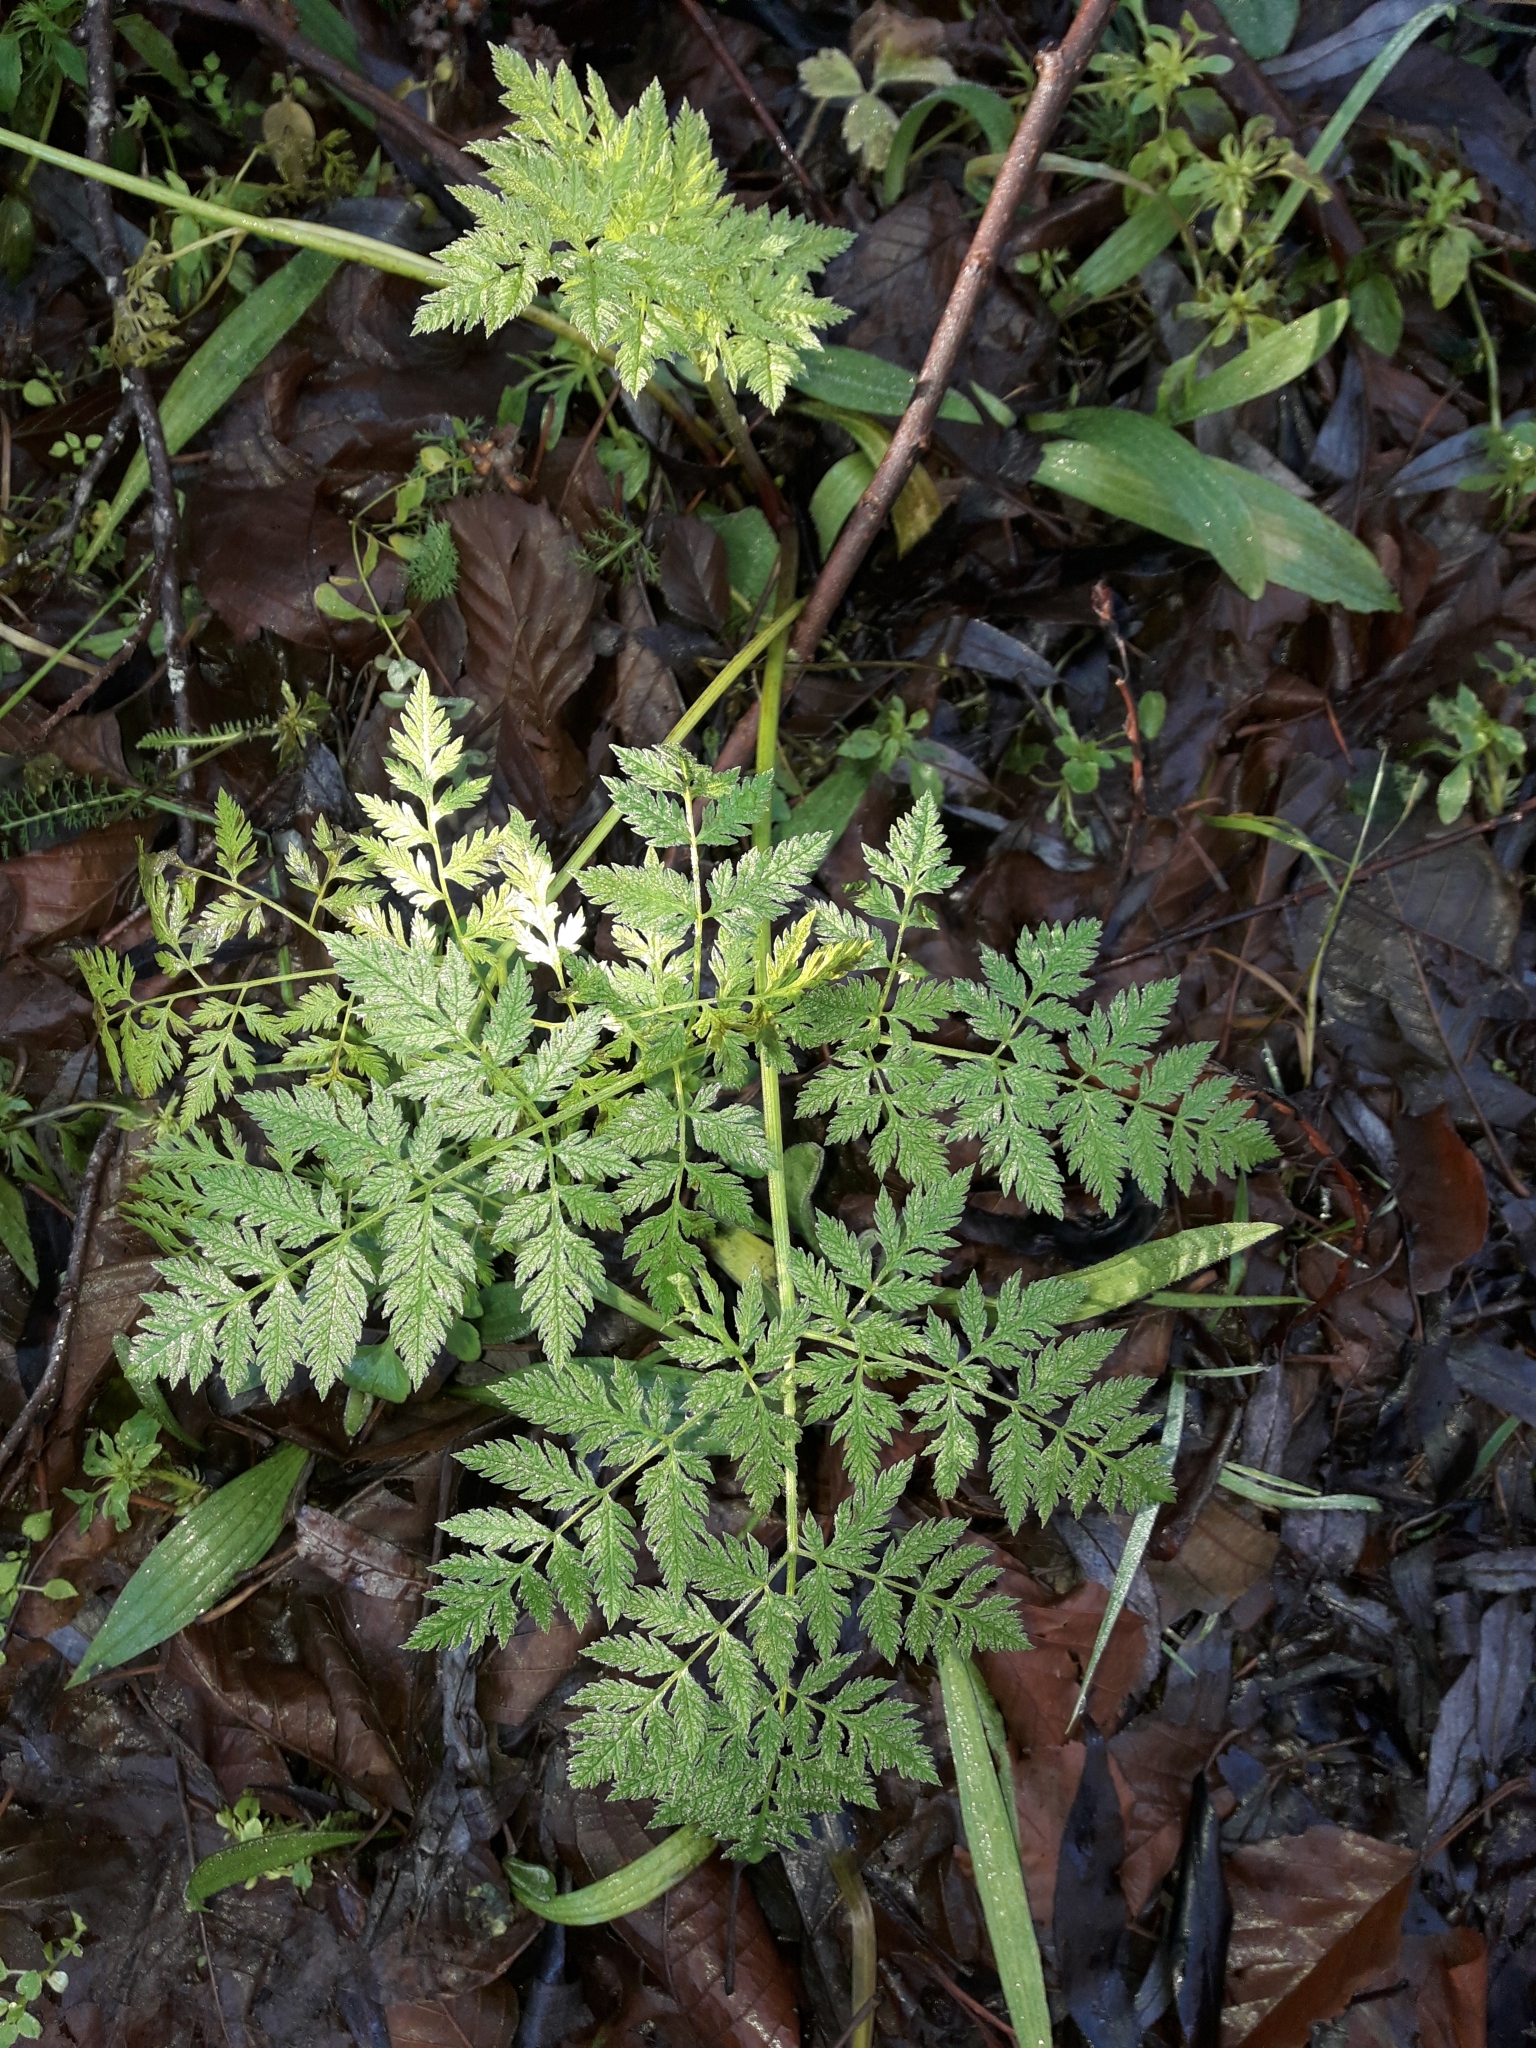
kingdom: Plantae
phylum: Tracheophyta
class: Magnoliopsida
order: Apiales
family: Apiaceae
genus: Conium
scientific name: Conium maculatum
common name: Hemlock
